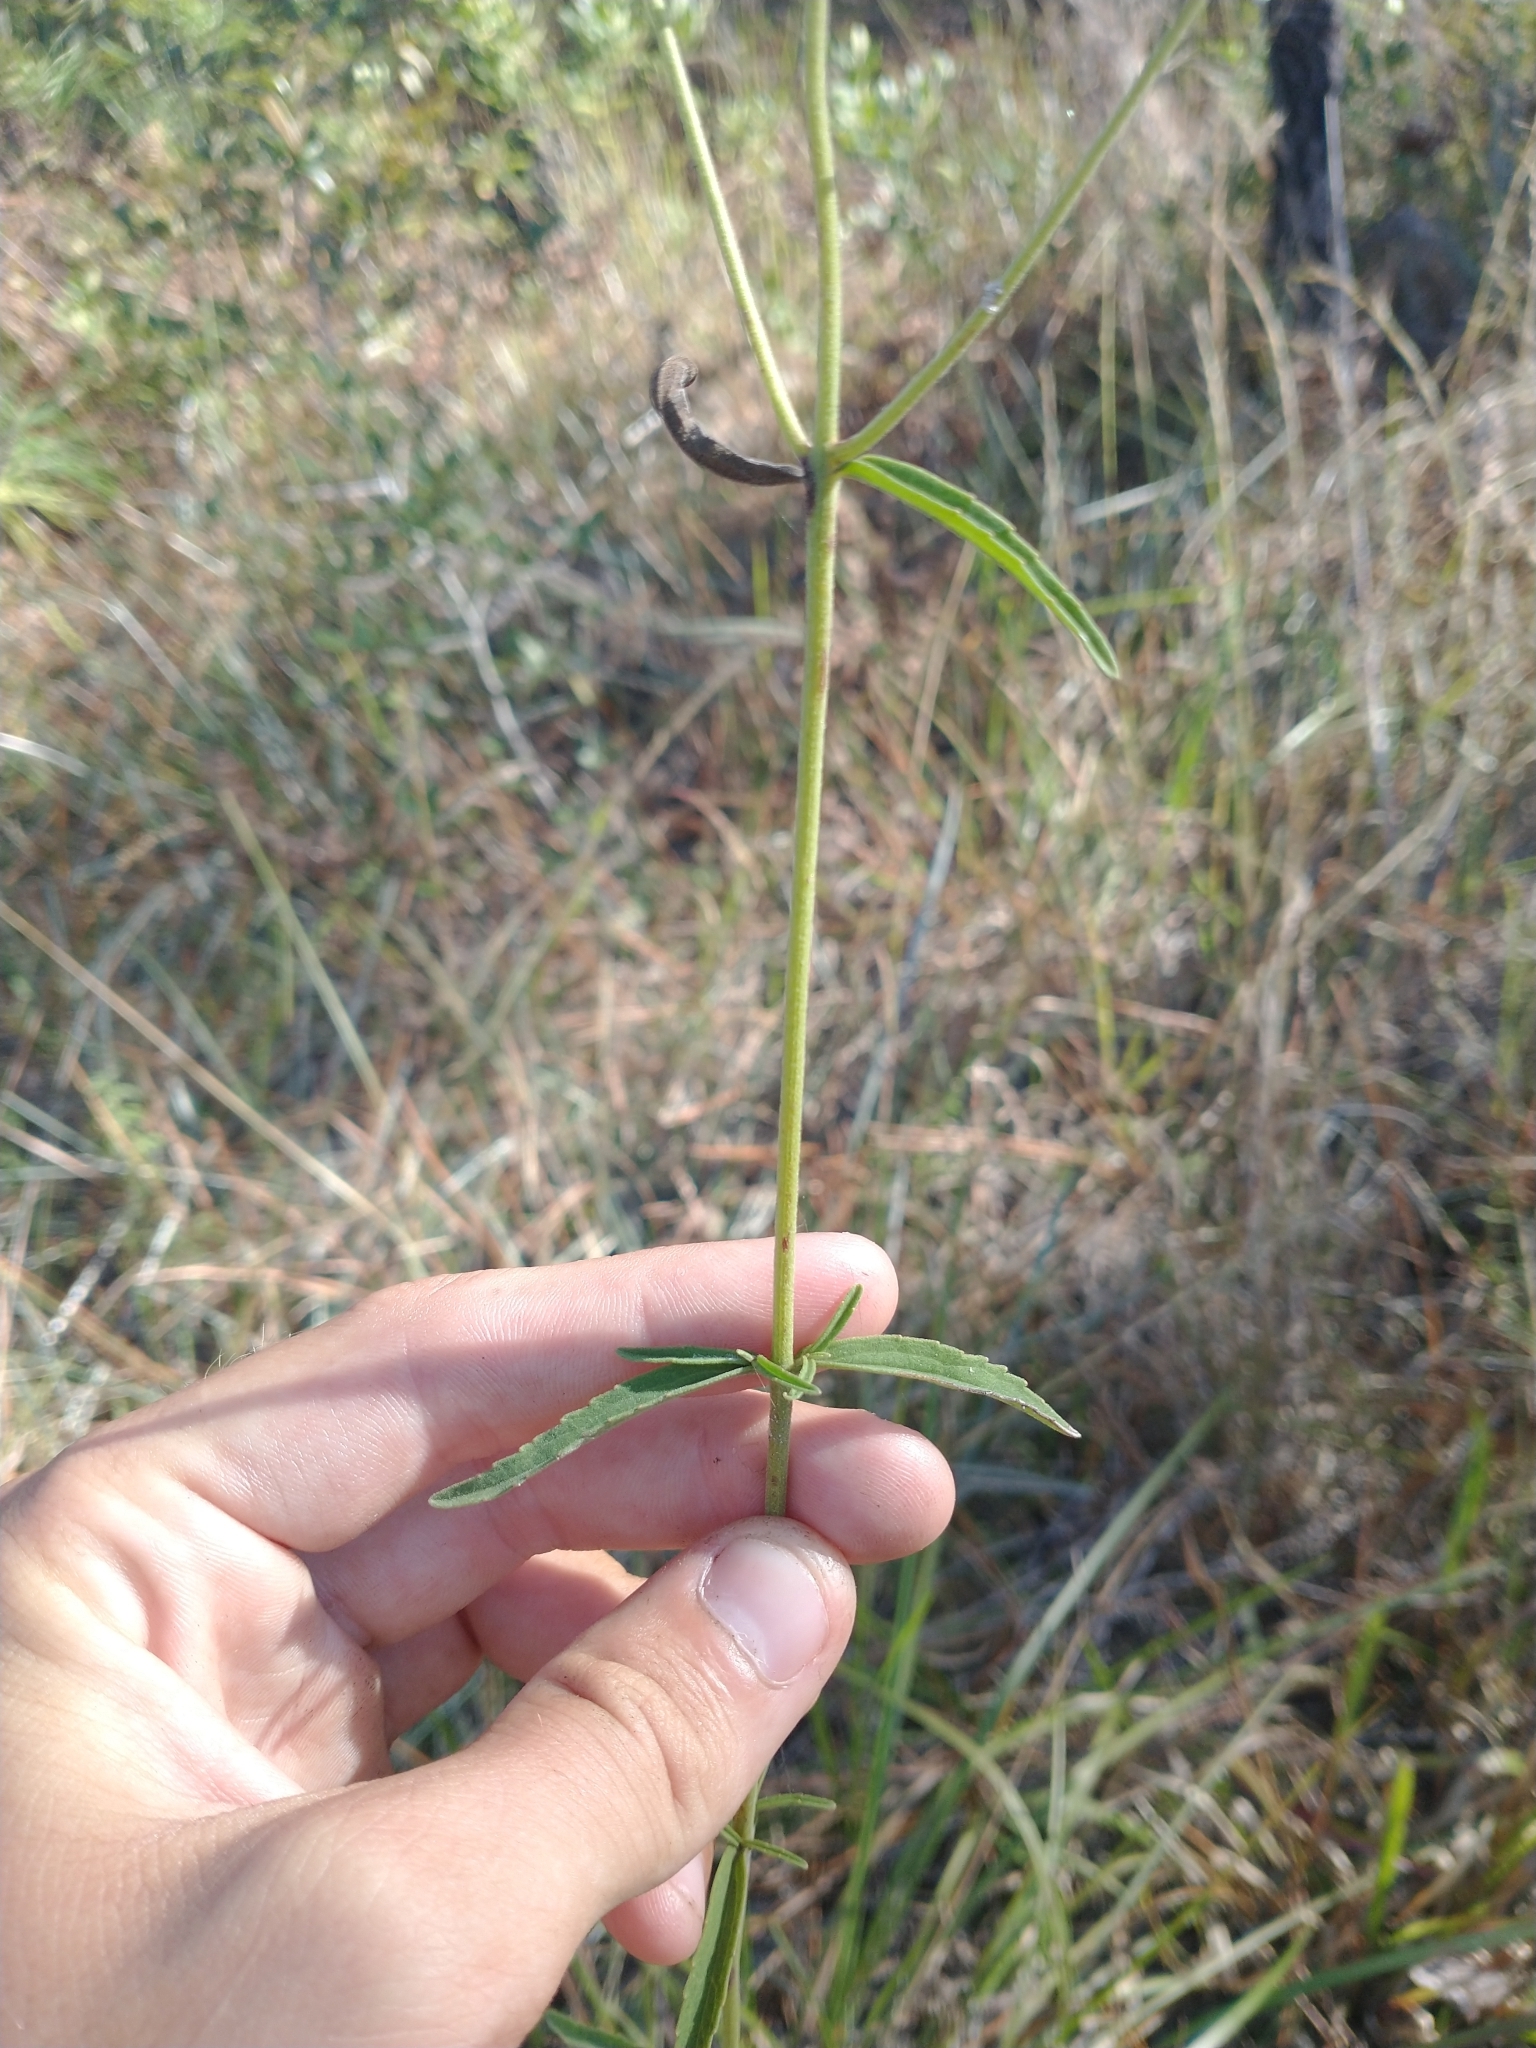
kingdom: Plantae
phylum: Tracheophyta
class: Magnoliopsida
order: Asterales
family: Asteraceae
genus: Eupatorium
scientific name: Eupatorium leucolepis
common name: Justiceweed
